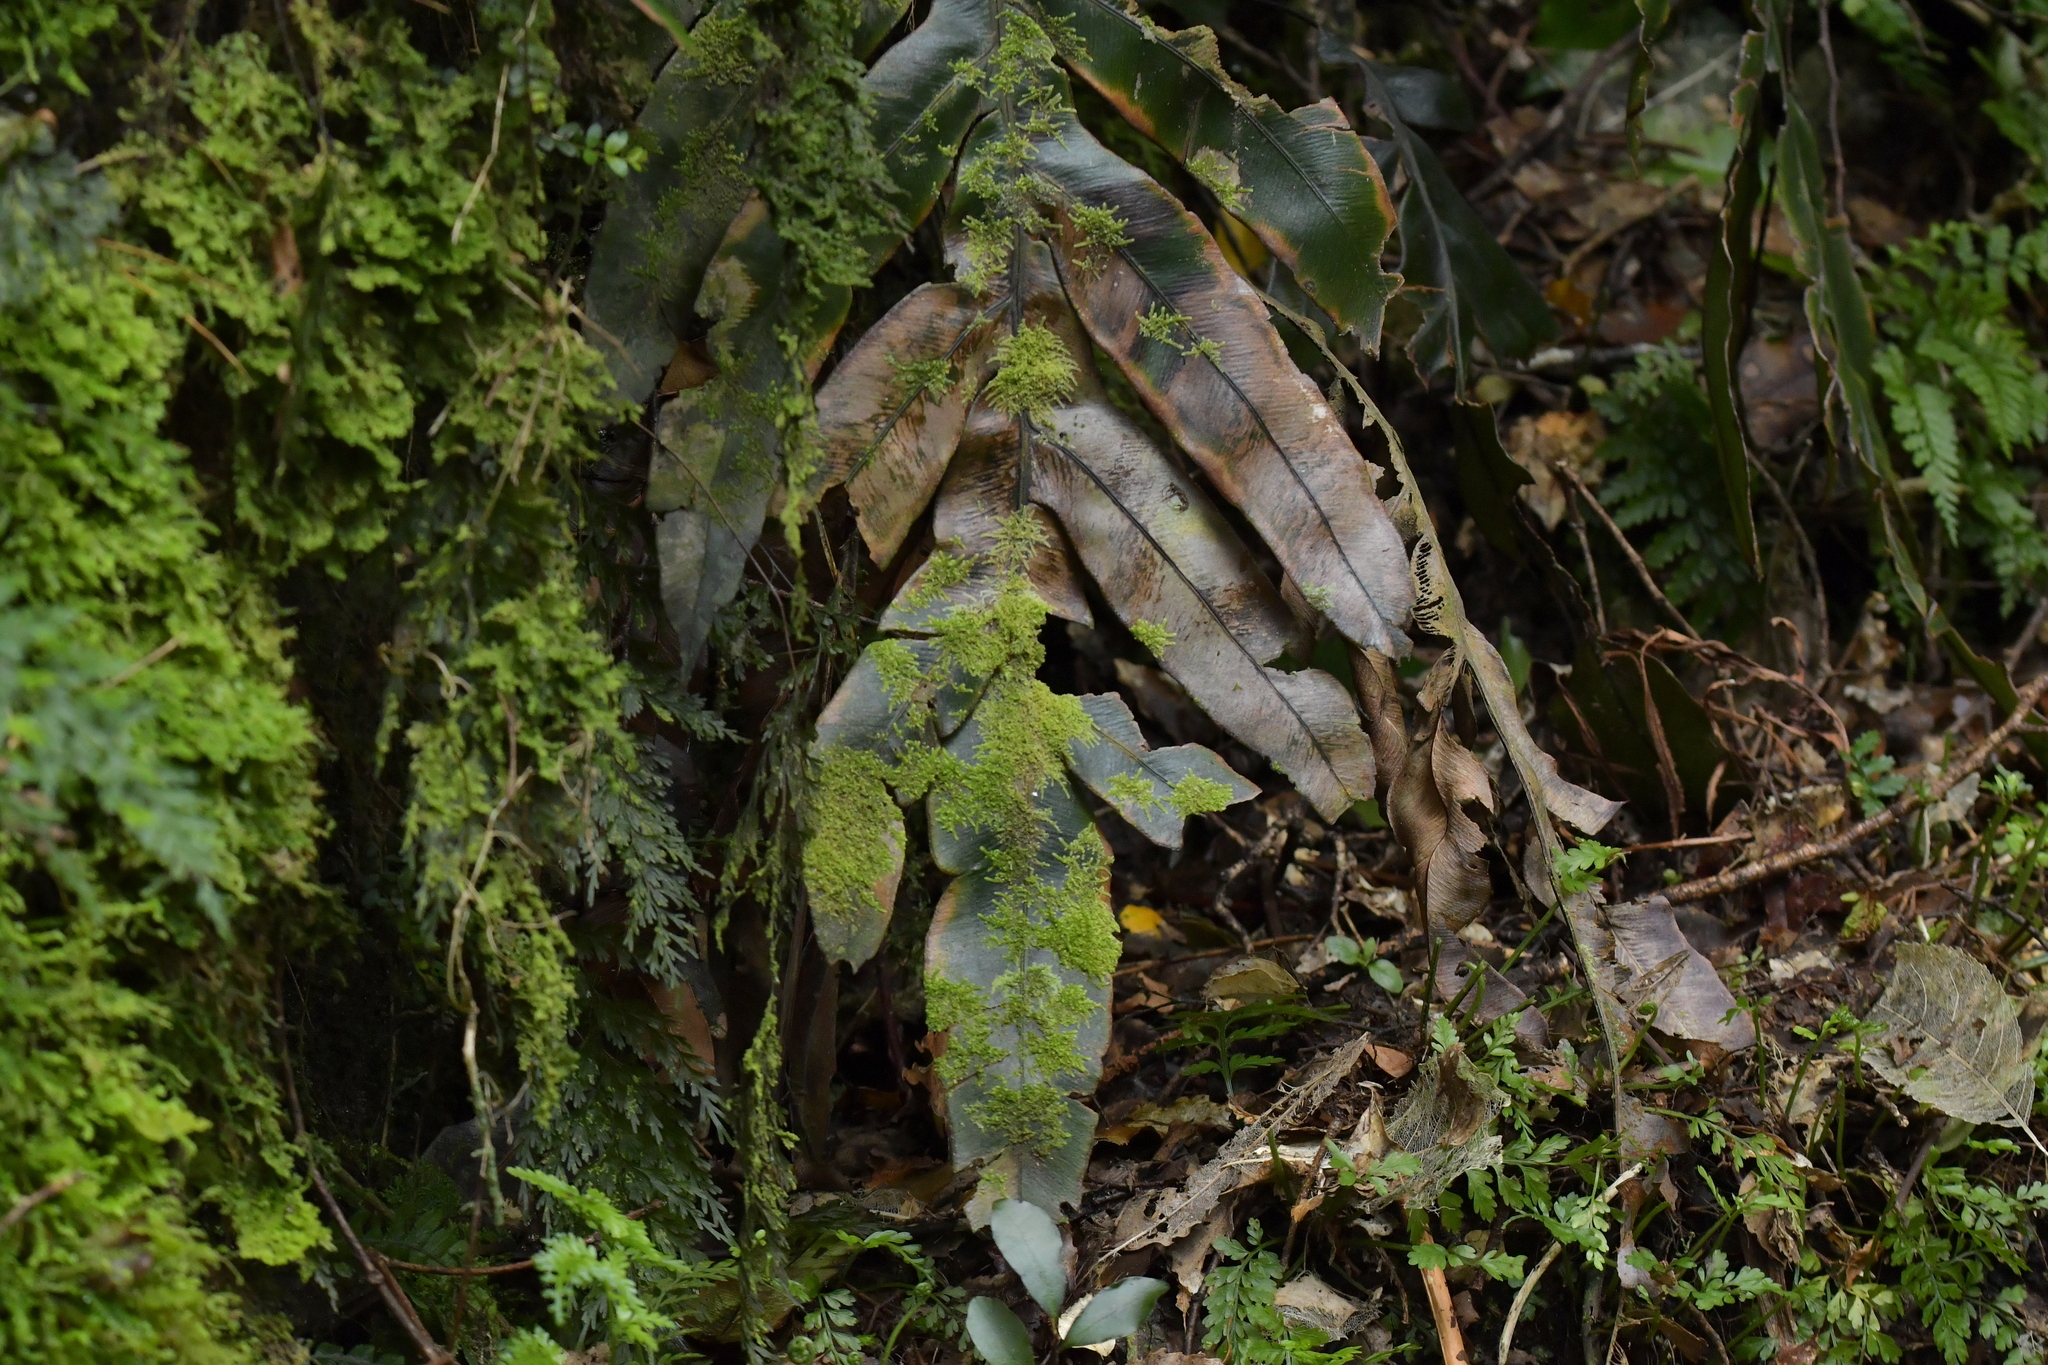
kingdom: Plantae
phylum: Tracheophyta
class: Polypodiopsida
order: Polypodiales
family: Blechnaceae
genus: Austroblechnum
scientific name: Austroblechnum colensoi
